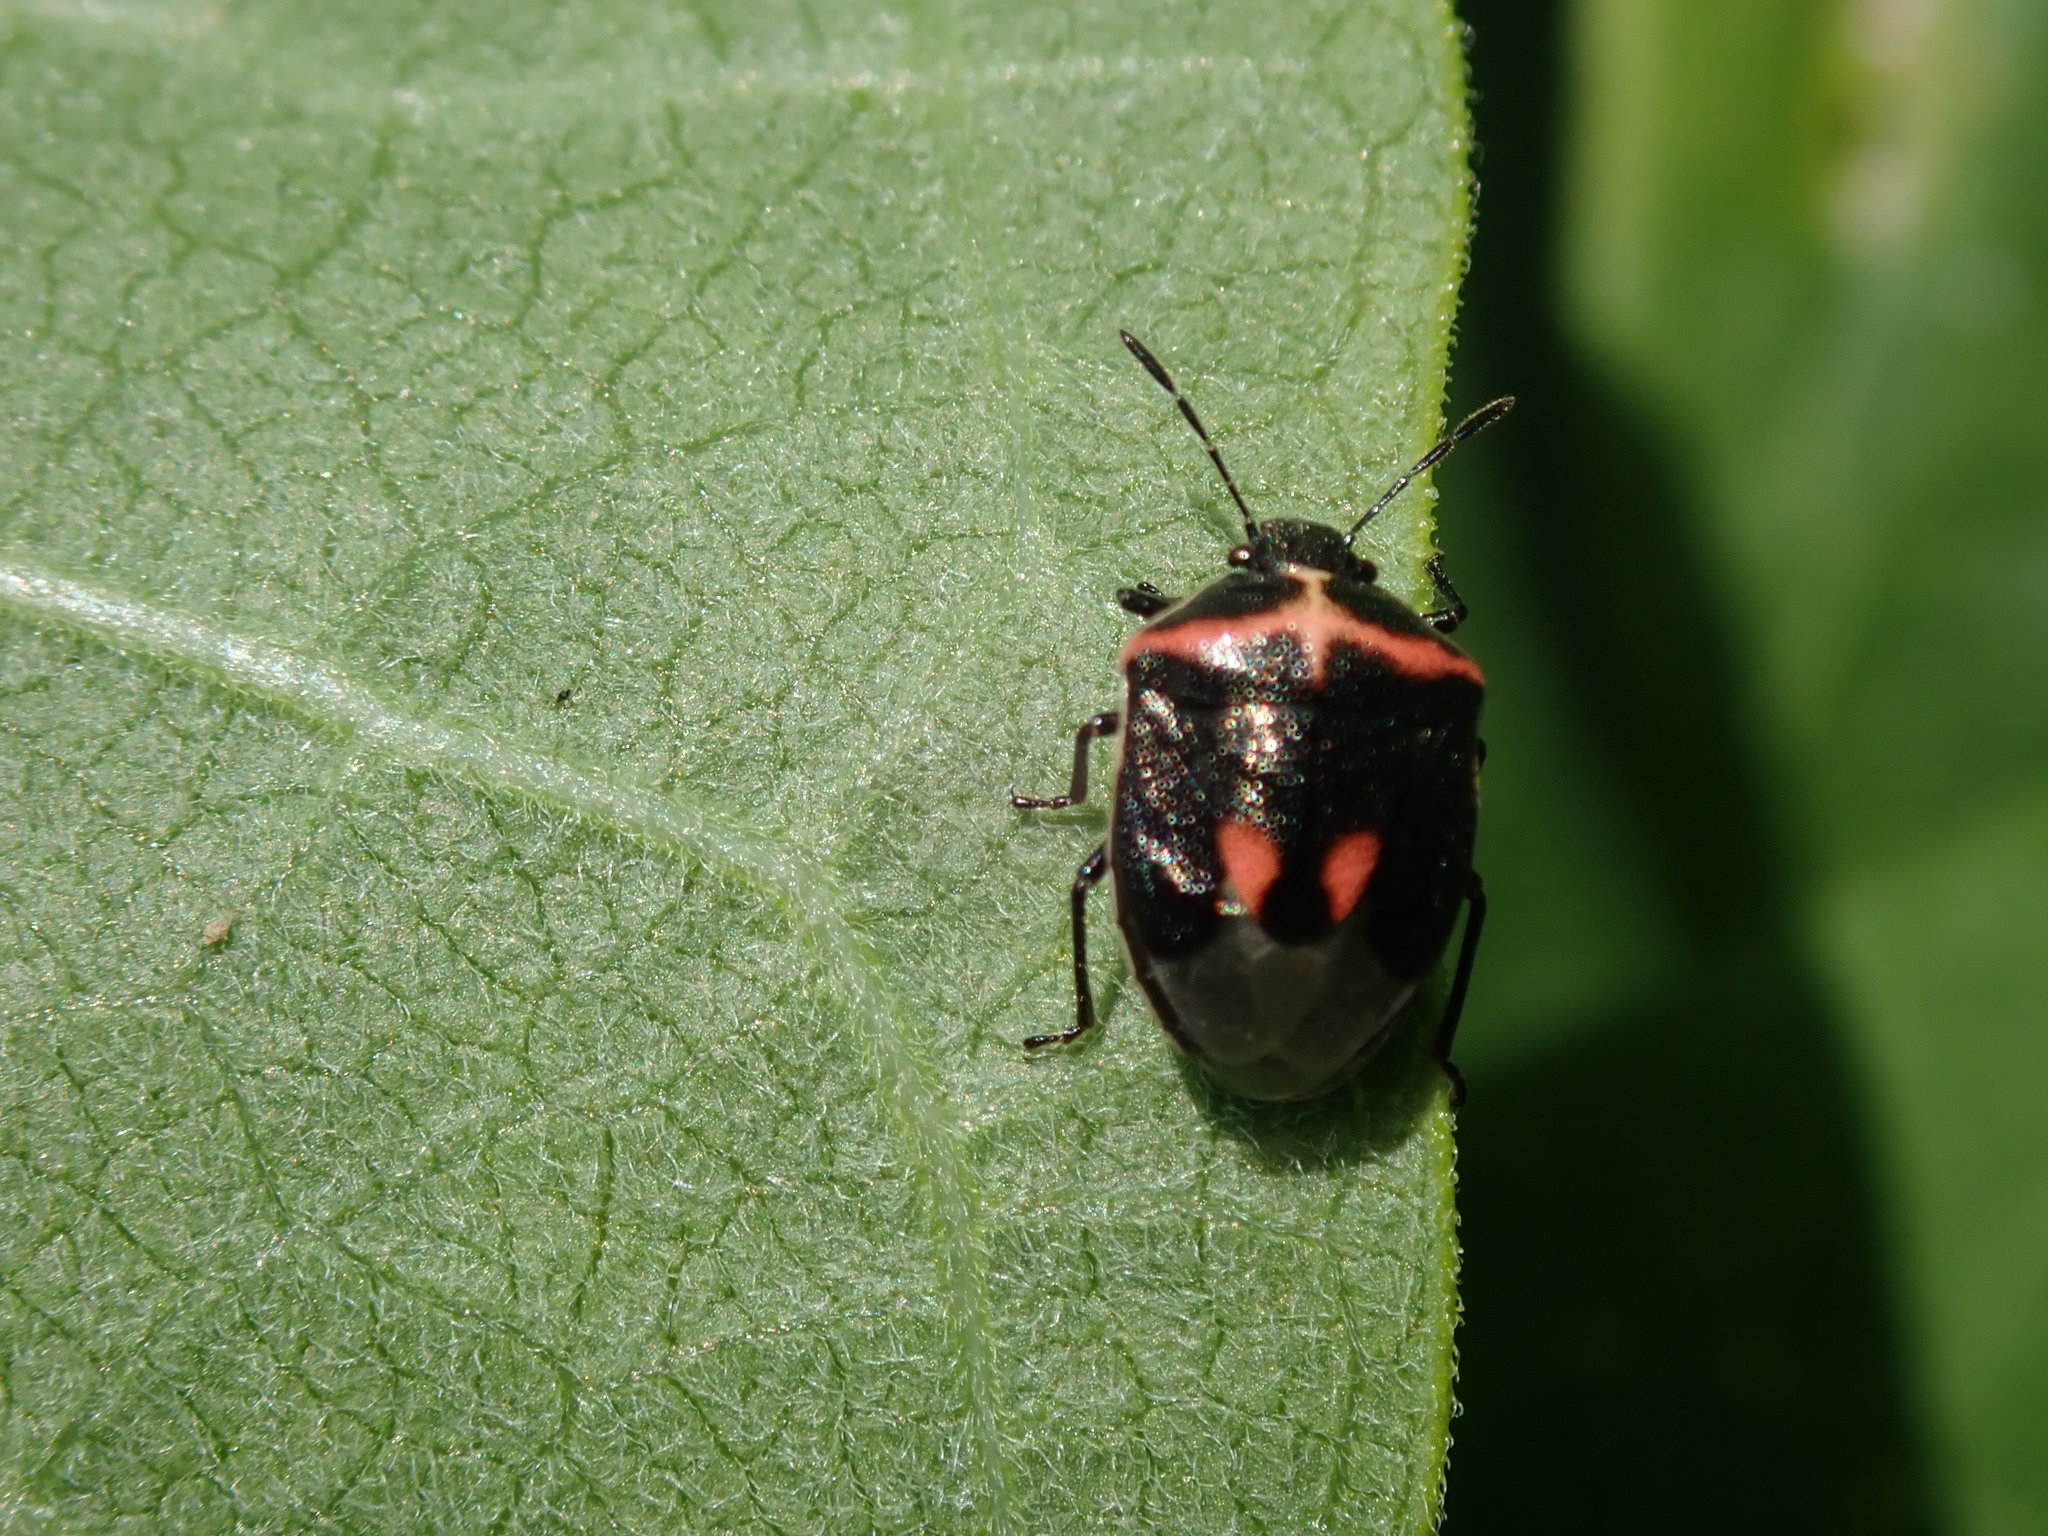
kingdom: Animalia
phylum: Arthropoda
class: Insecta
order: Hemiptera
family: Pentatomidae
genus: Cosmopepla
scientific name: Cosmopepla lintneriana
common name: Twice-stabbed stink bug
